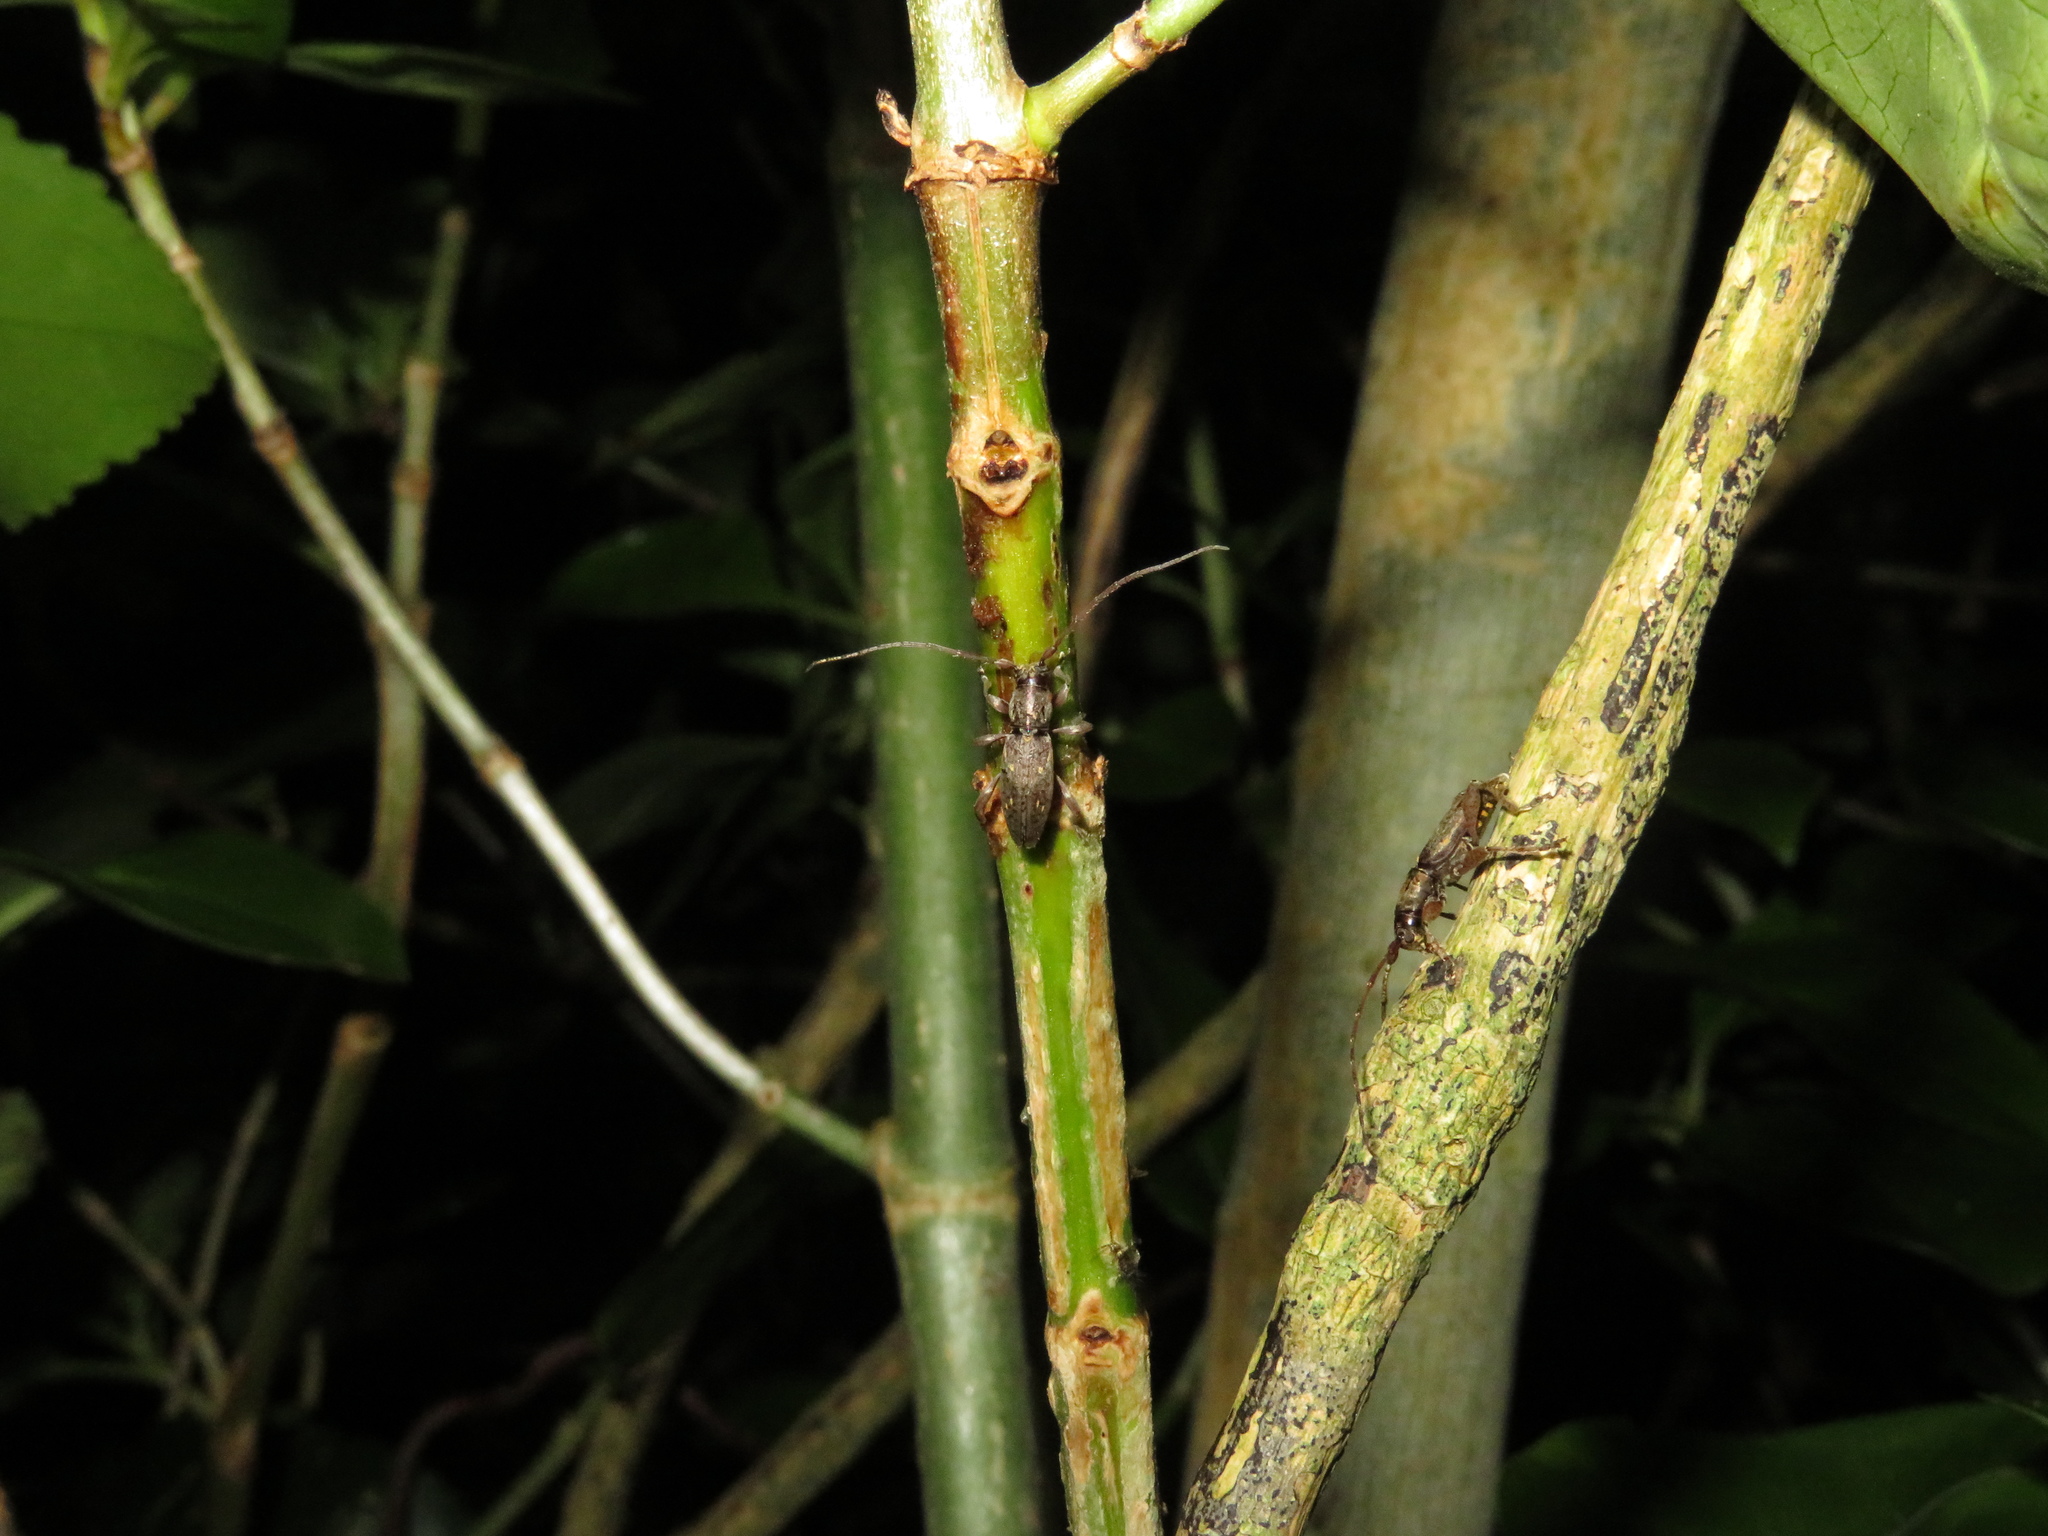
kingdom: Animalia
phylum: Arthropoda
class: Insecta
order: Coleoptera
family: Cerambycidae
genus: Xylotoles
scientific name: Xylotoles griseus
